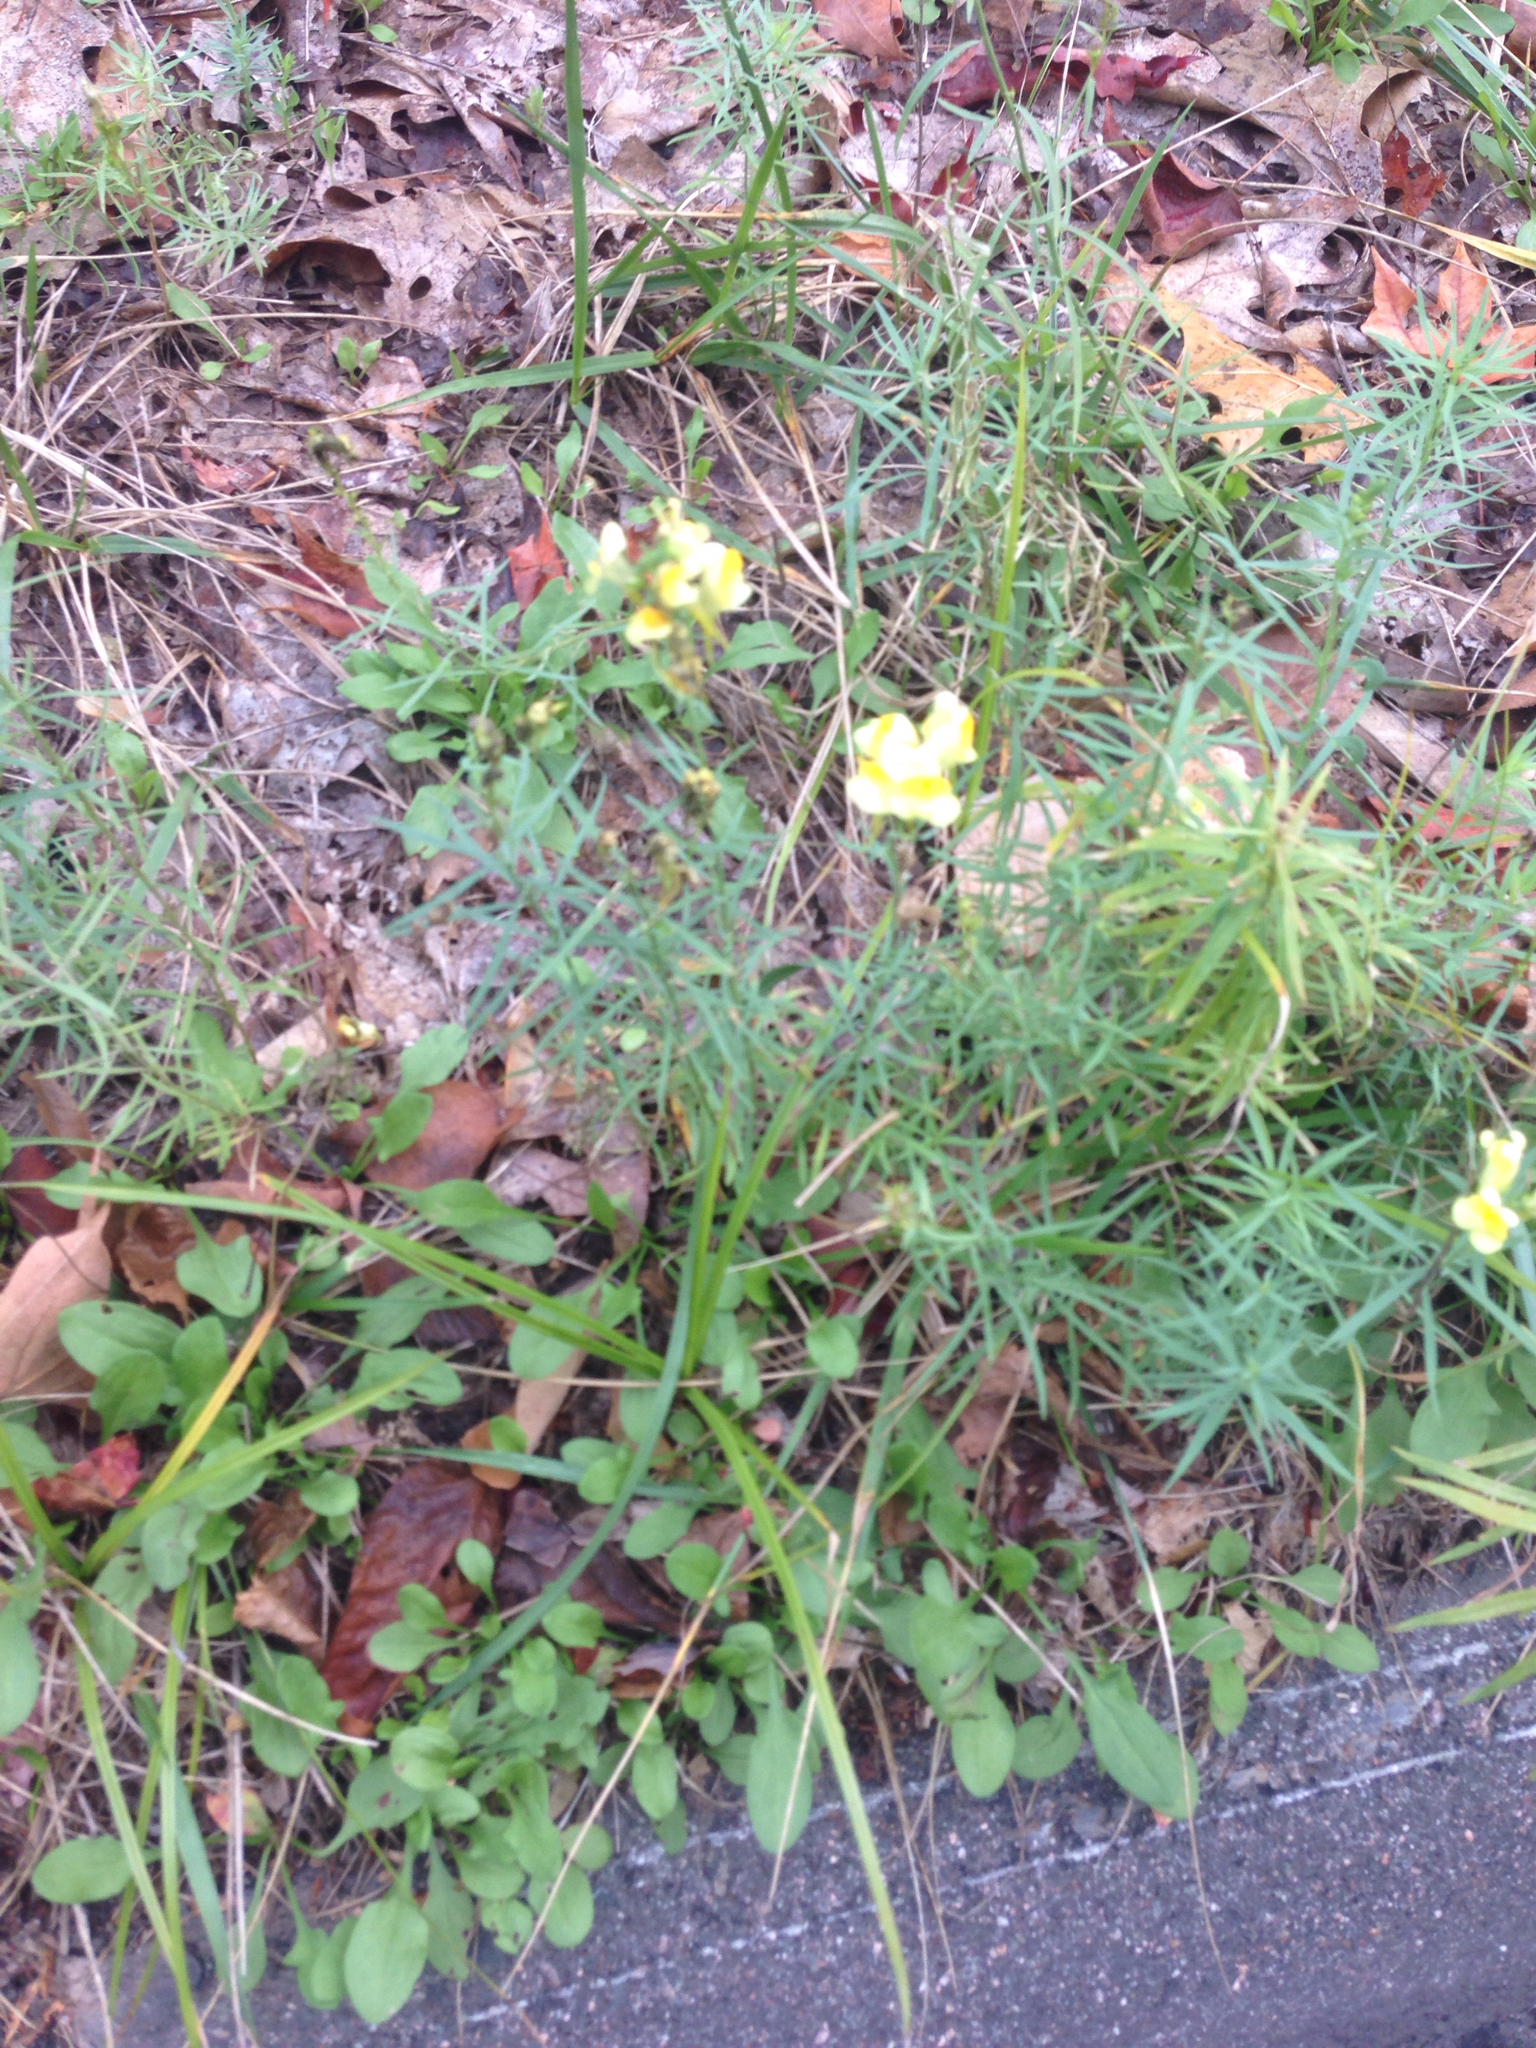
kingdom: Plantae
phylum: Tracheophyta
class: Magnoliopsida
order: Lamiales
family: Plantaginaceae
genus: Linaria
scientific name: Linaria vulgaris
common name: Butter and eggs
